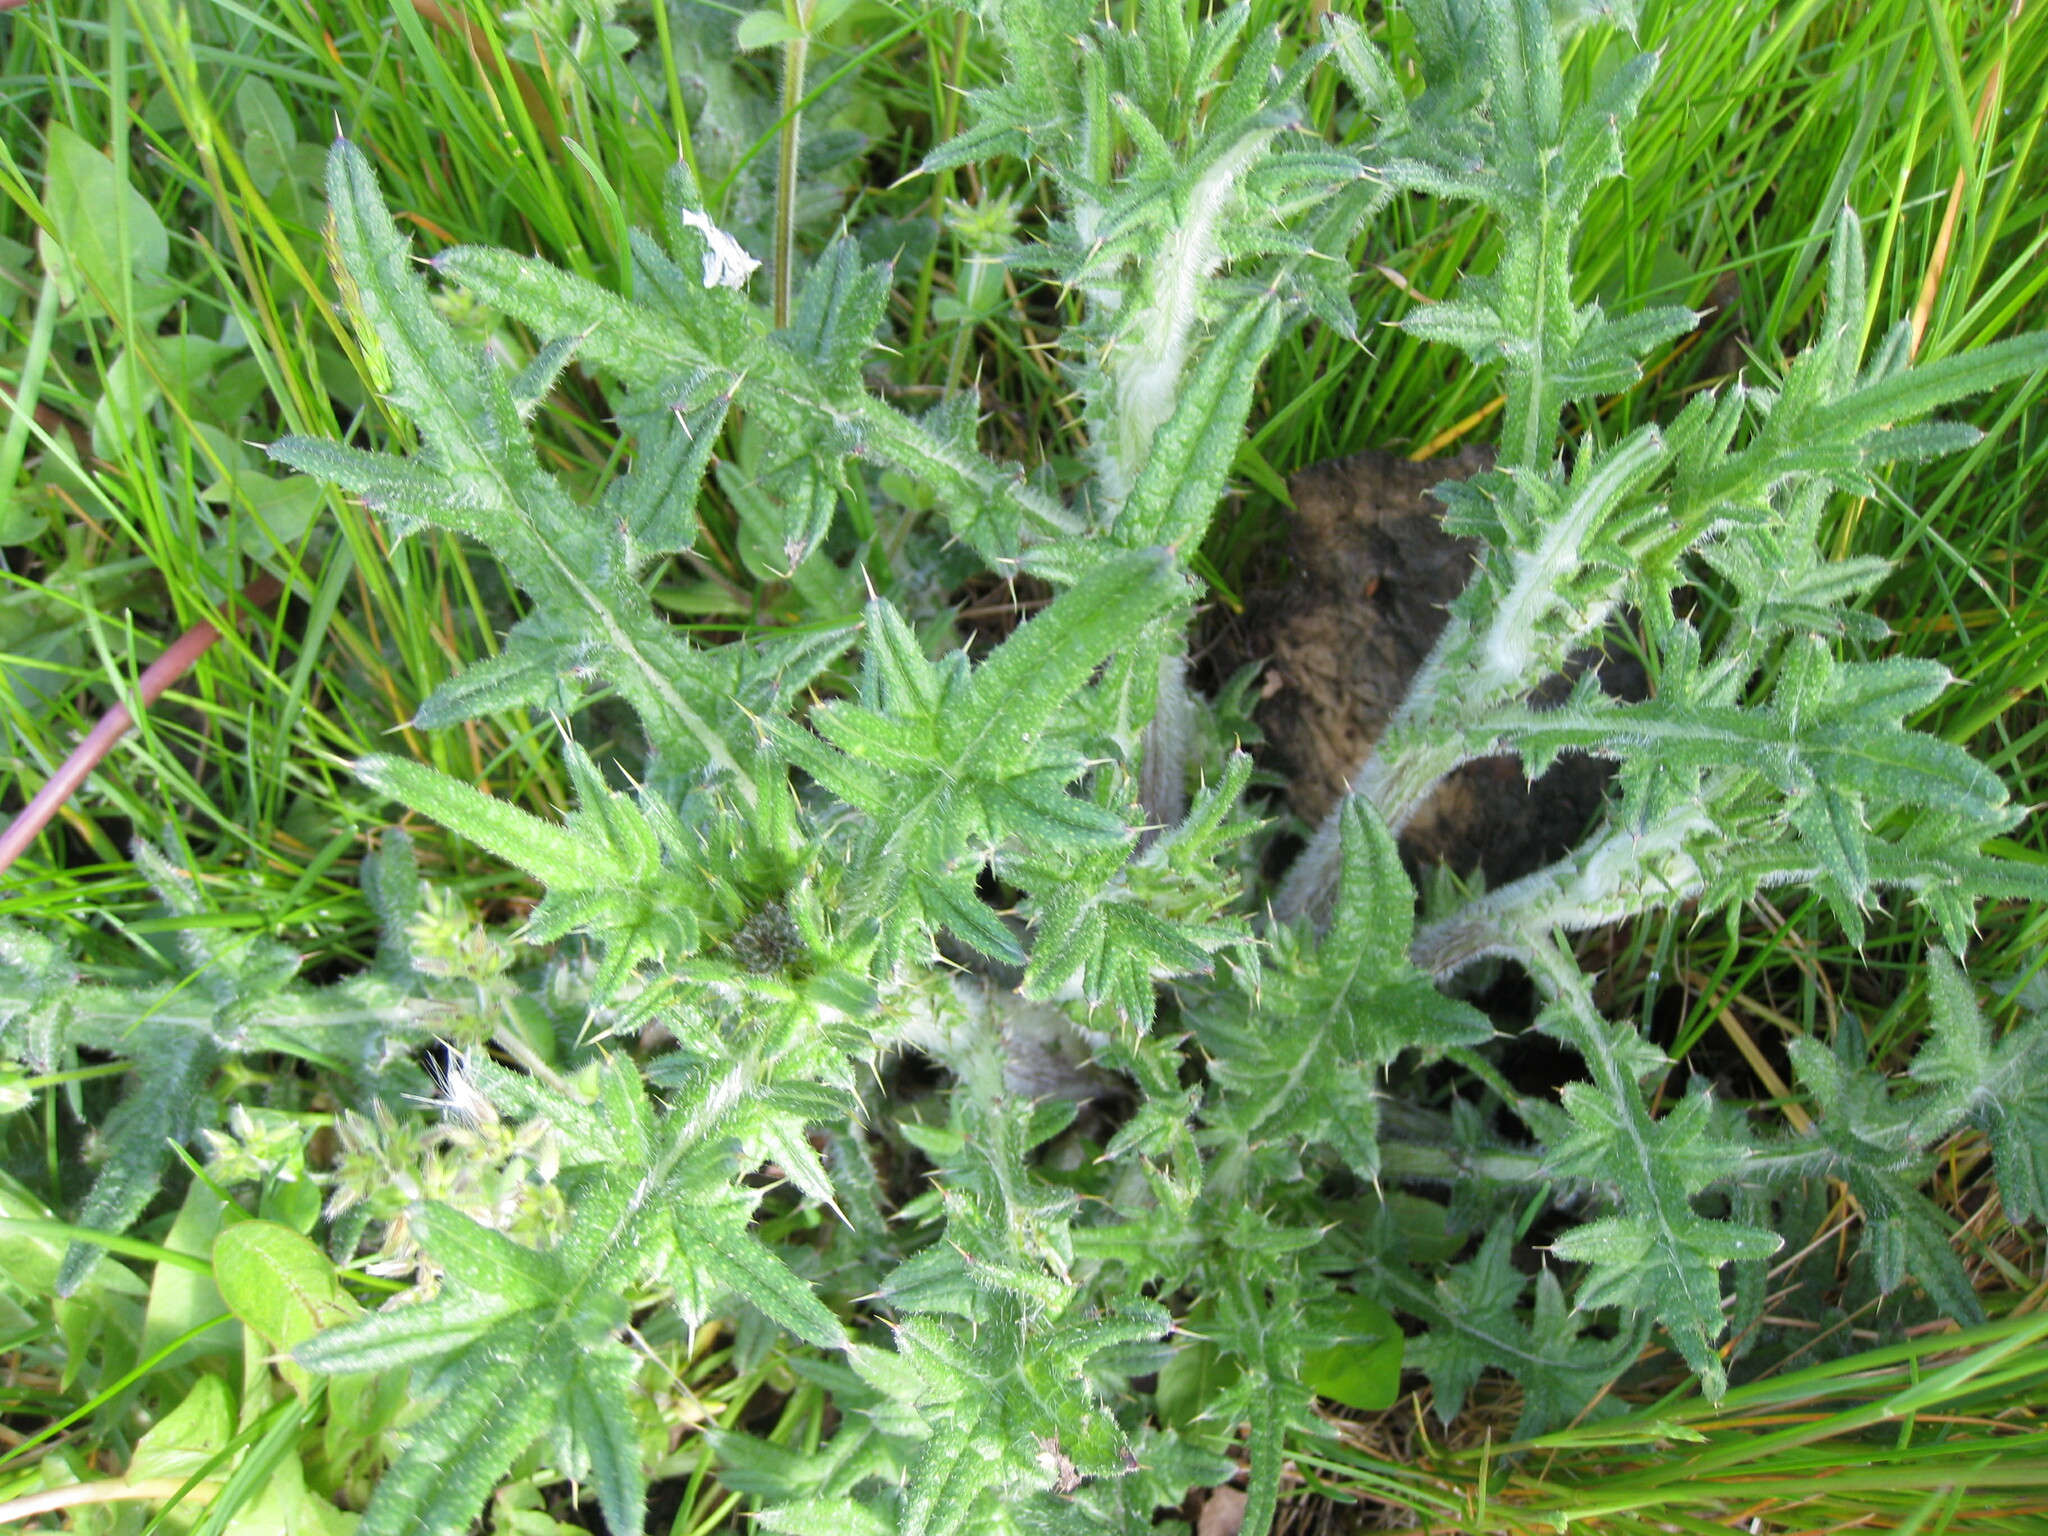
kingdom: Plantae
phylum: Tracheophyta
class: Magnoliopsida
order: Asterales
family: Asteraceae
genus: Cirsium
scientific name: Cirsium vulgare
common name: Bull thistle
